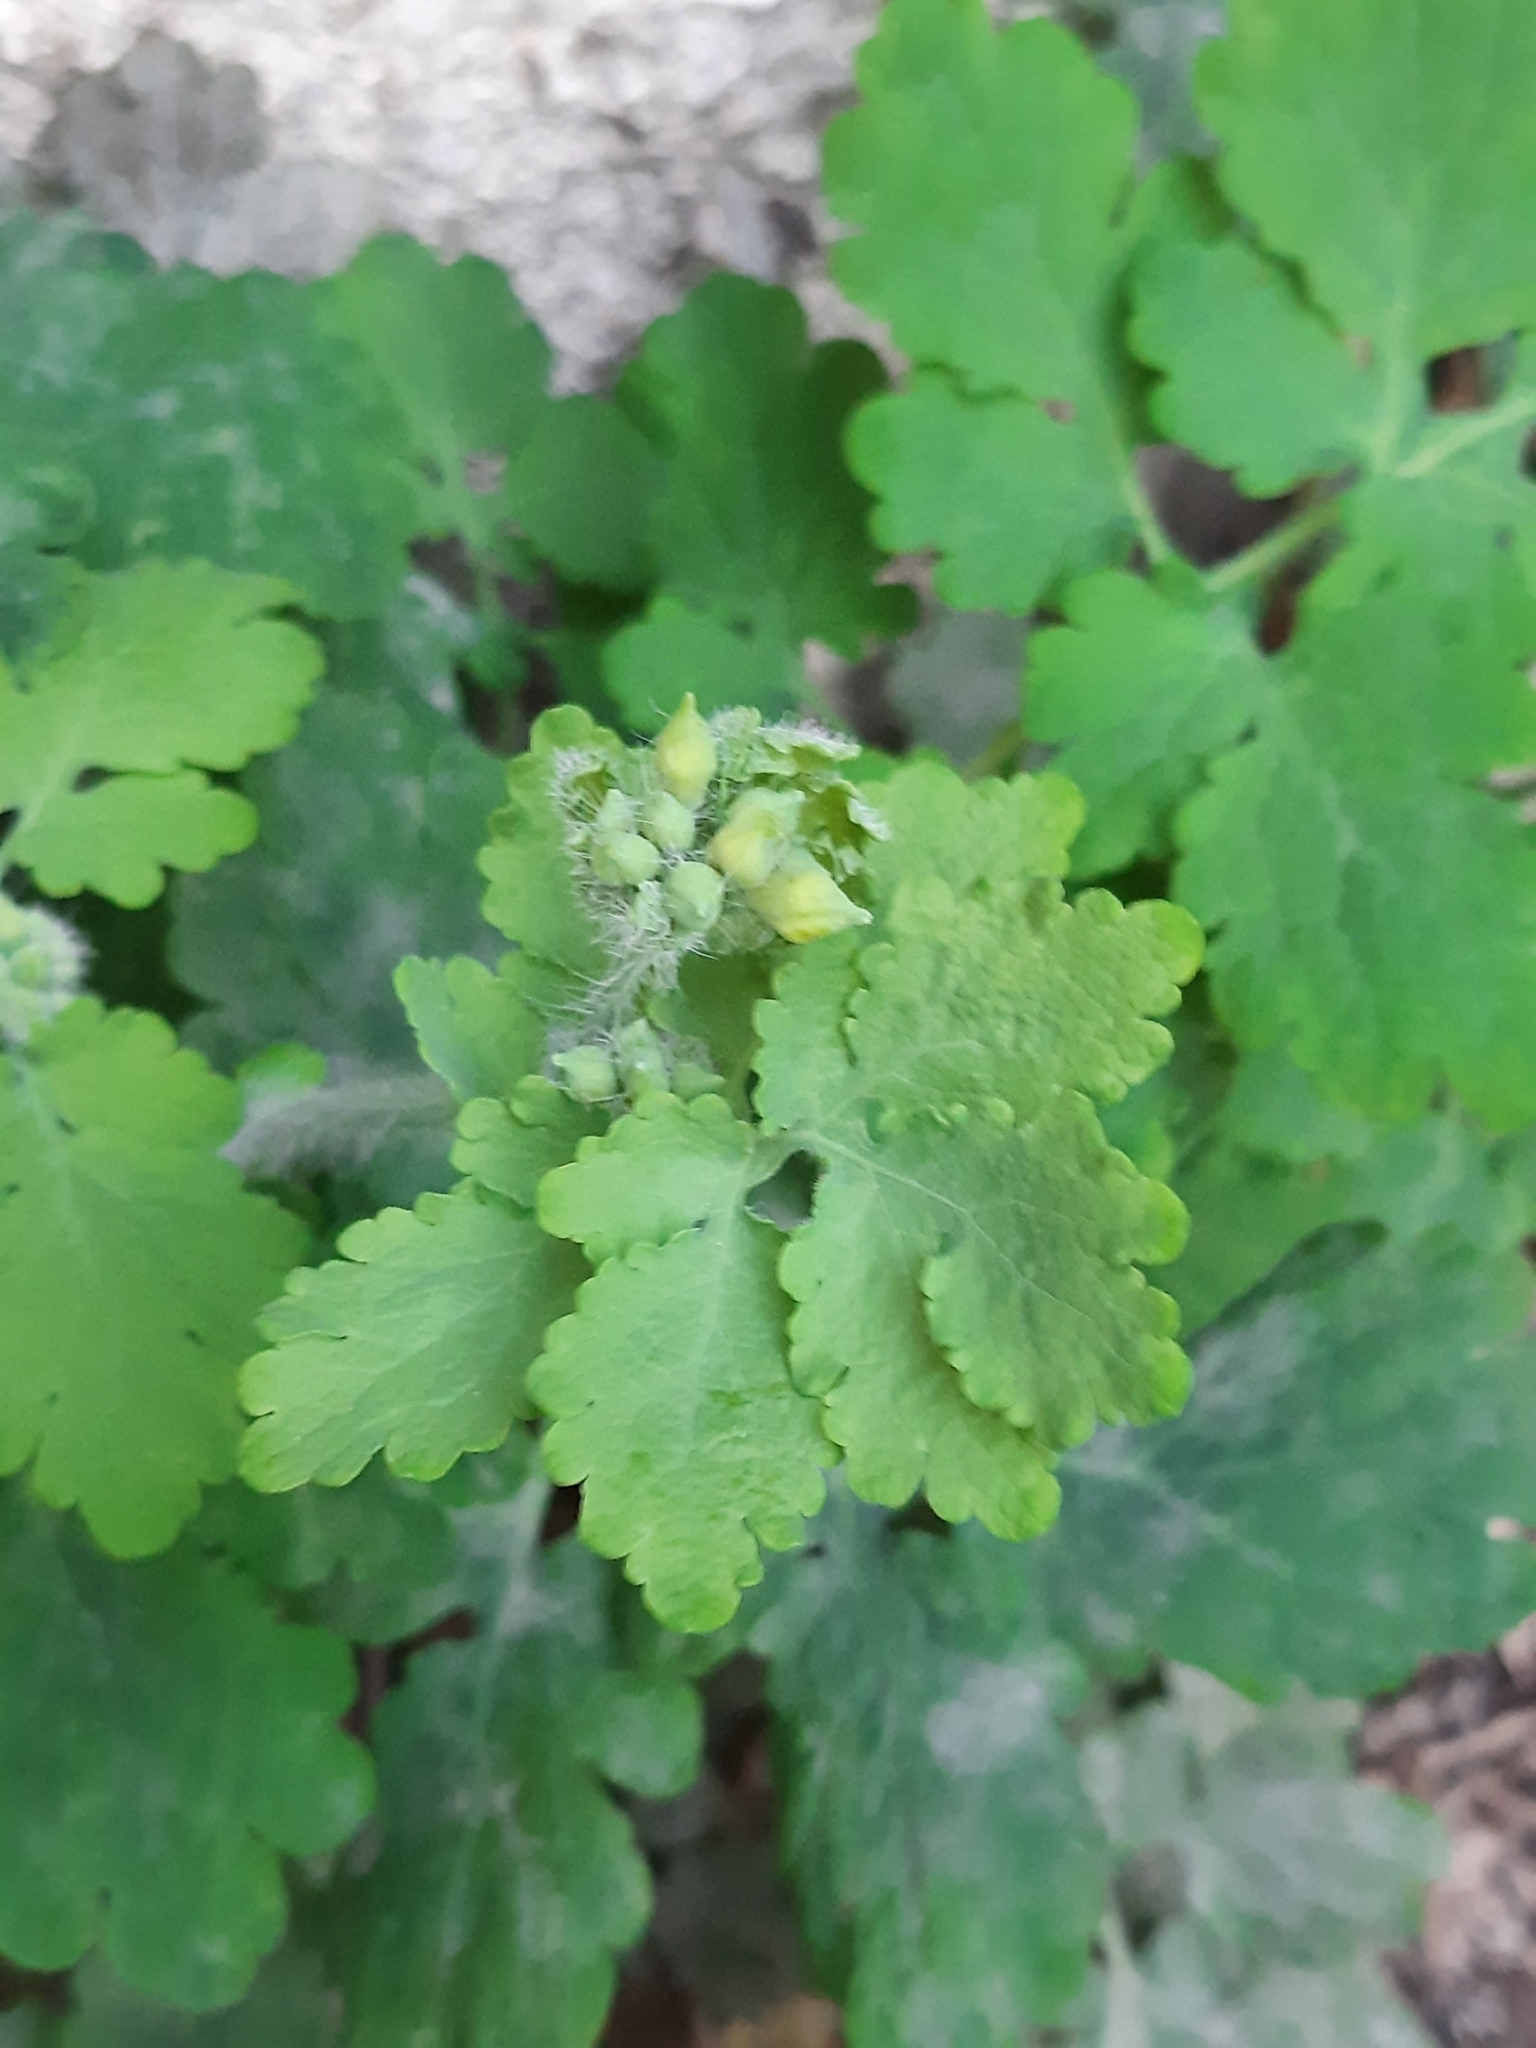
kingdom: Plantae
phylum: Tracheophyta
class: Magnoliopsida
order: Ranunculales
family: Papaveraceae
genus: Chelidonium
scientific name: Chelidonium majus
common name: Greater celandine
